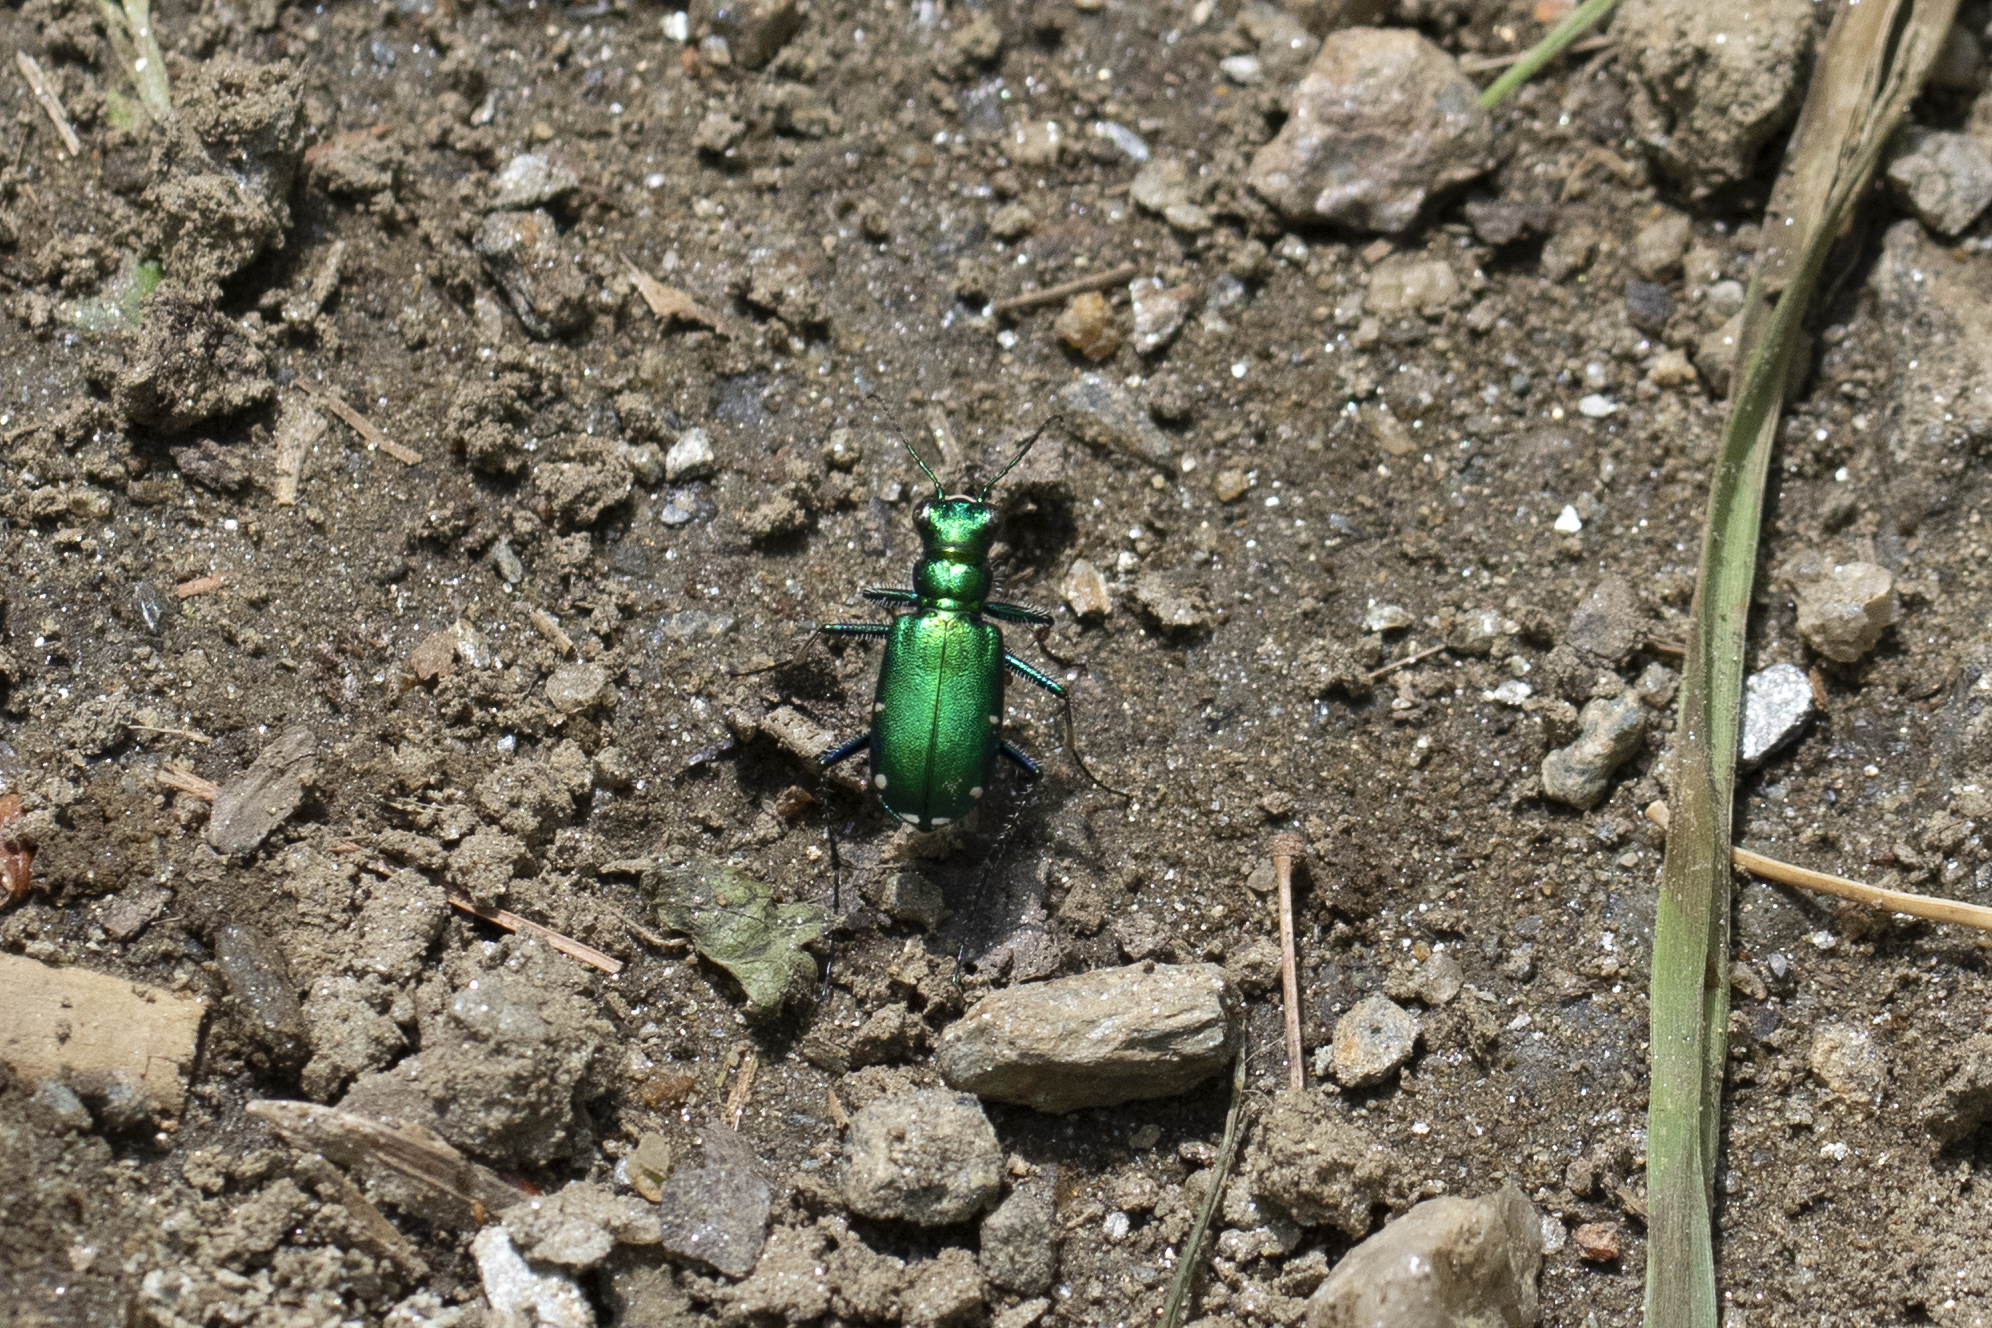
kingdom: Animalia
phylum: Arthropoda
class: Insecta
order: Coleoptera
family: Carabidae
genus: Cicindela
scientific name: Cicindela sexguttata
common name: Six-spotted tiger beetle
